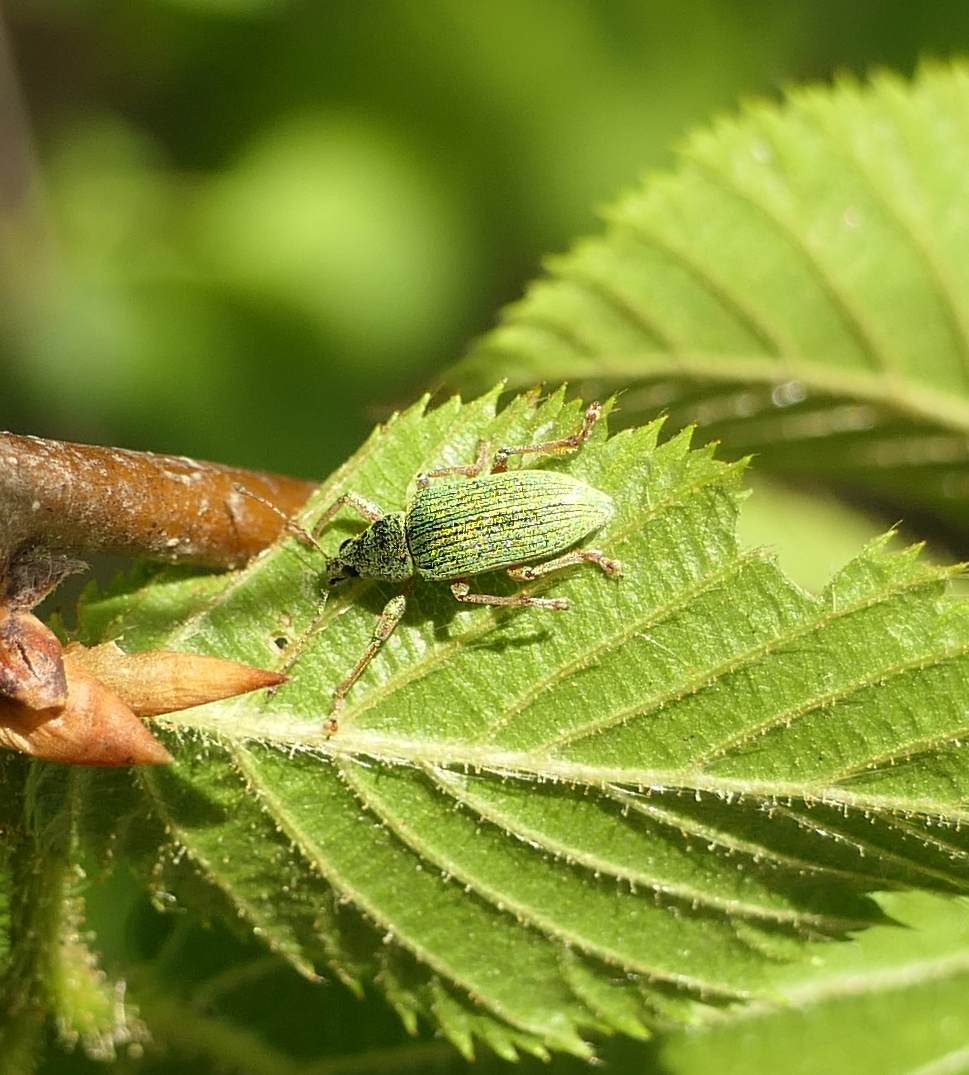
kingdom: Animalia
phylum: Arthropoda
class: Insecta
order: Coleoptera
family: Curculionidae
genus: Polydrusus
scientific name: Polydrusus formosus
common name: Weevil
